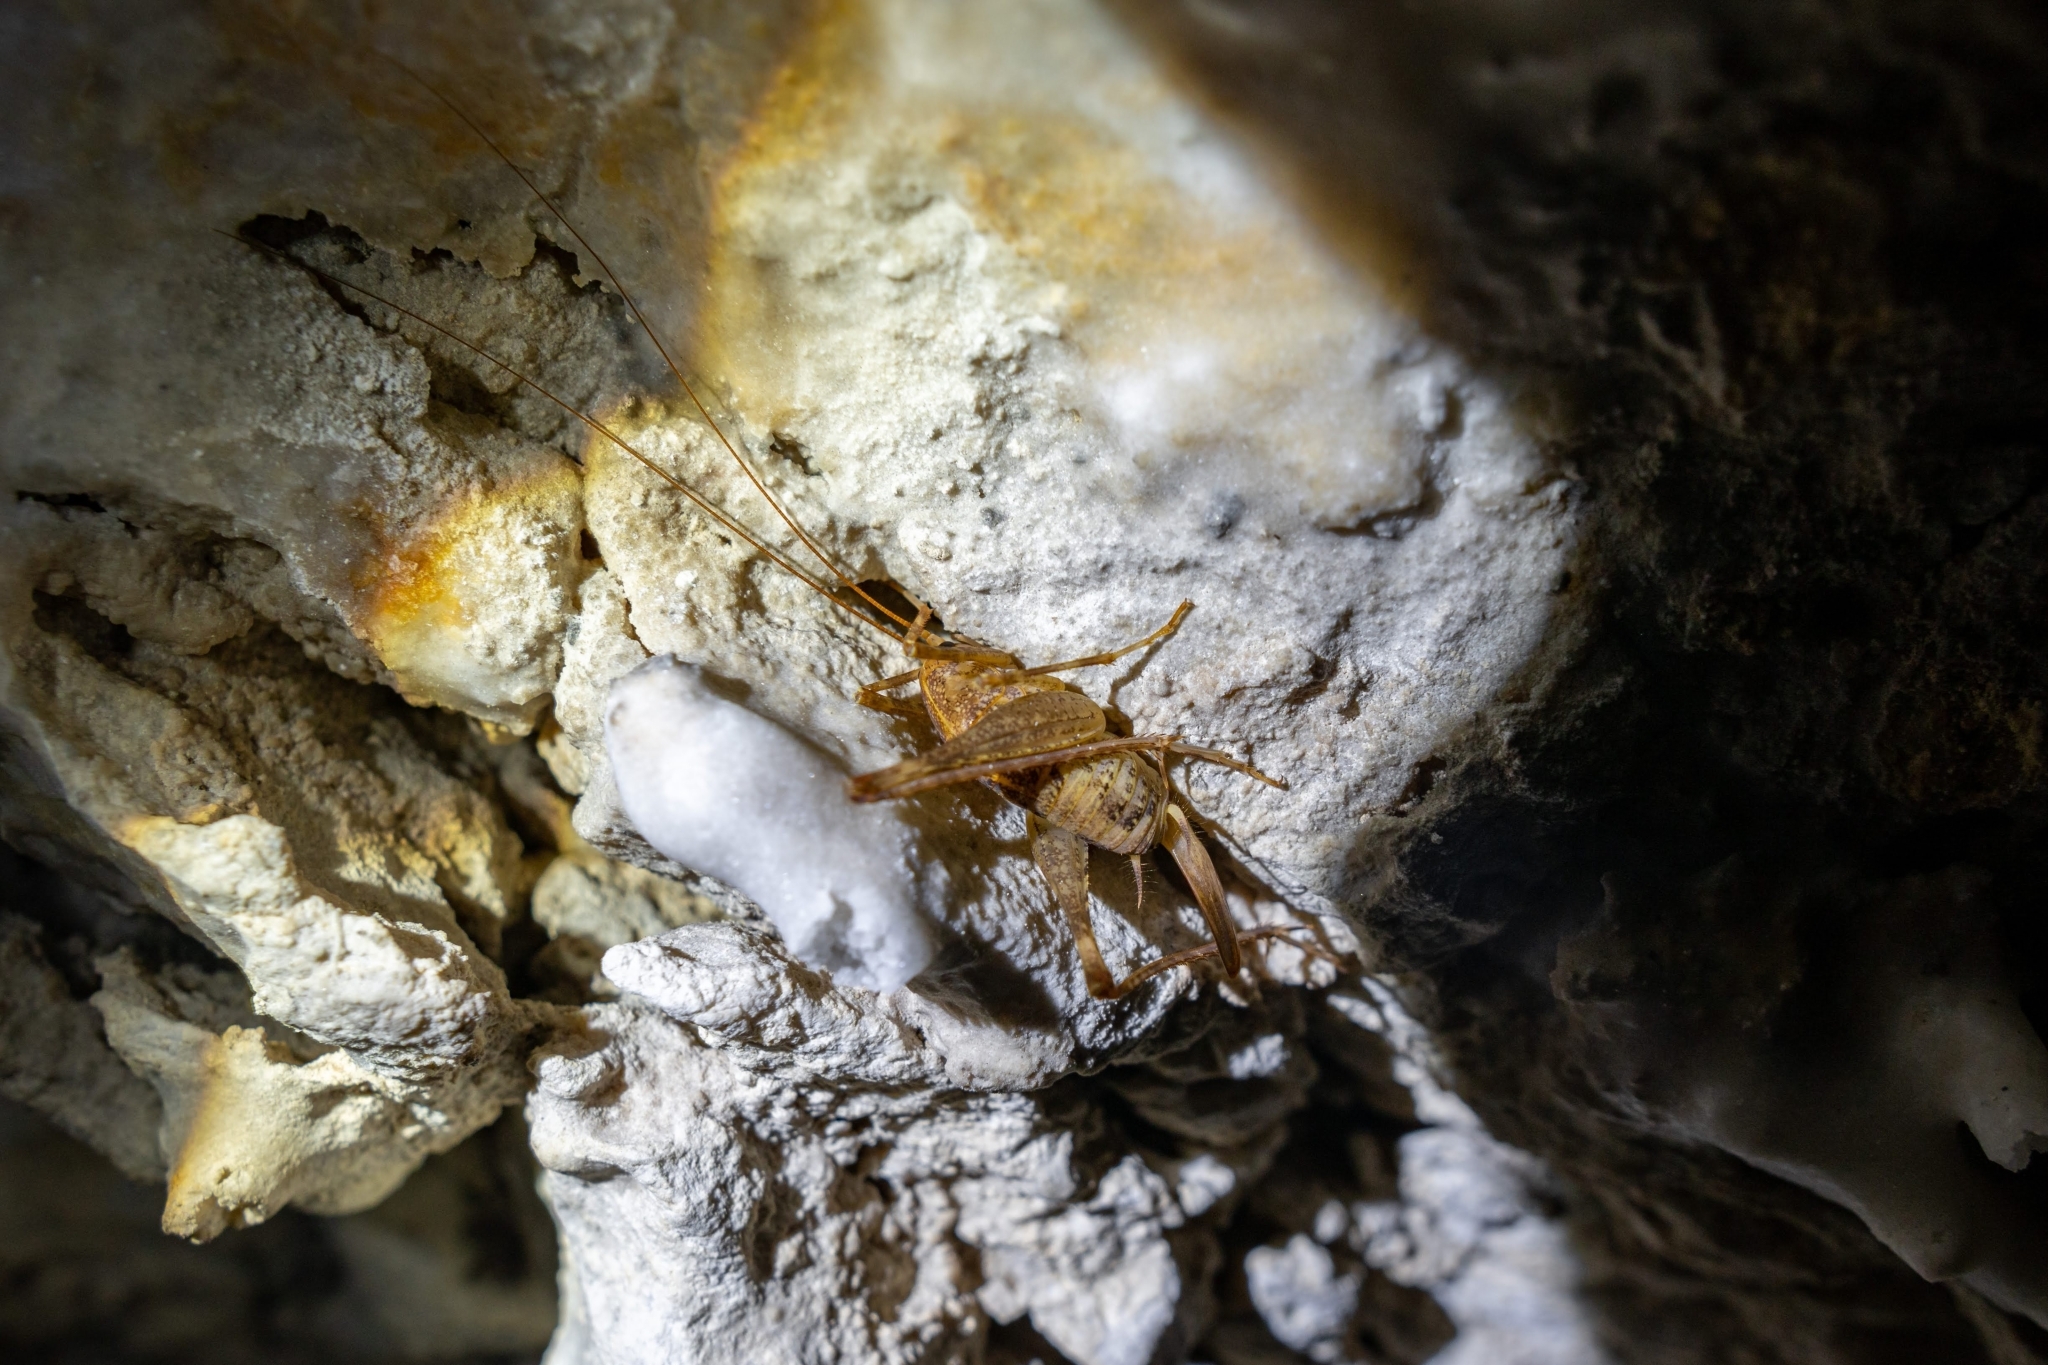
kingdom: Animalia
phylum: Arthropoda
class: Insecta
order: Orthoptera
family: Rhaphidophoridae
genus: Troglophilus
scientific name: Troglophilus cavicola
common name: Common cave-cricket
